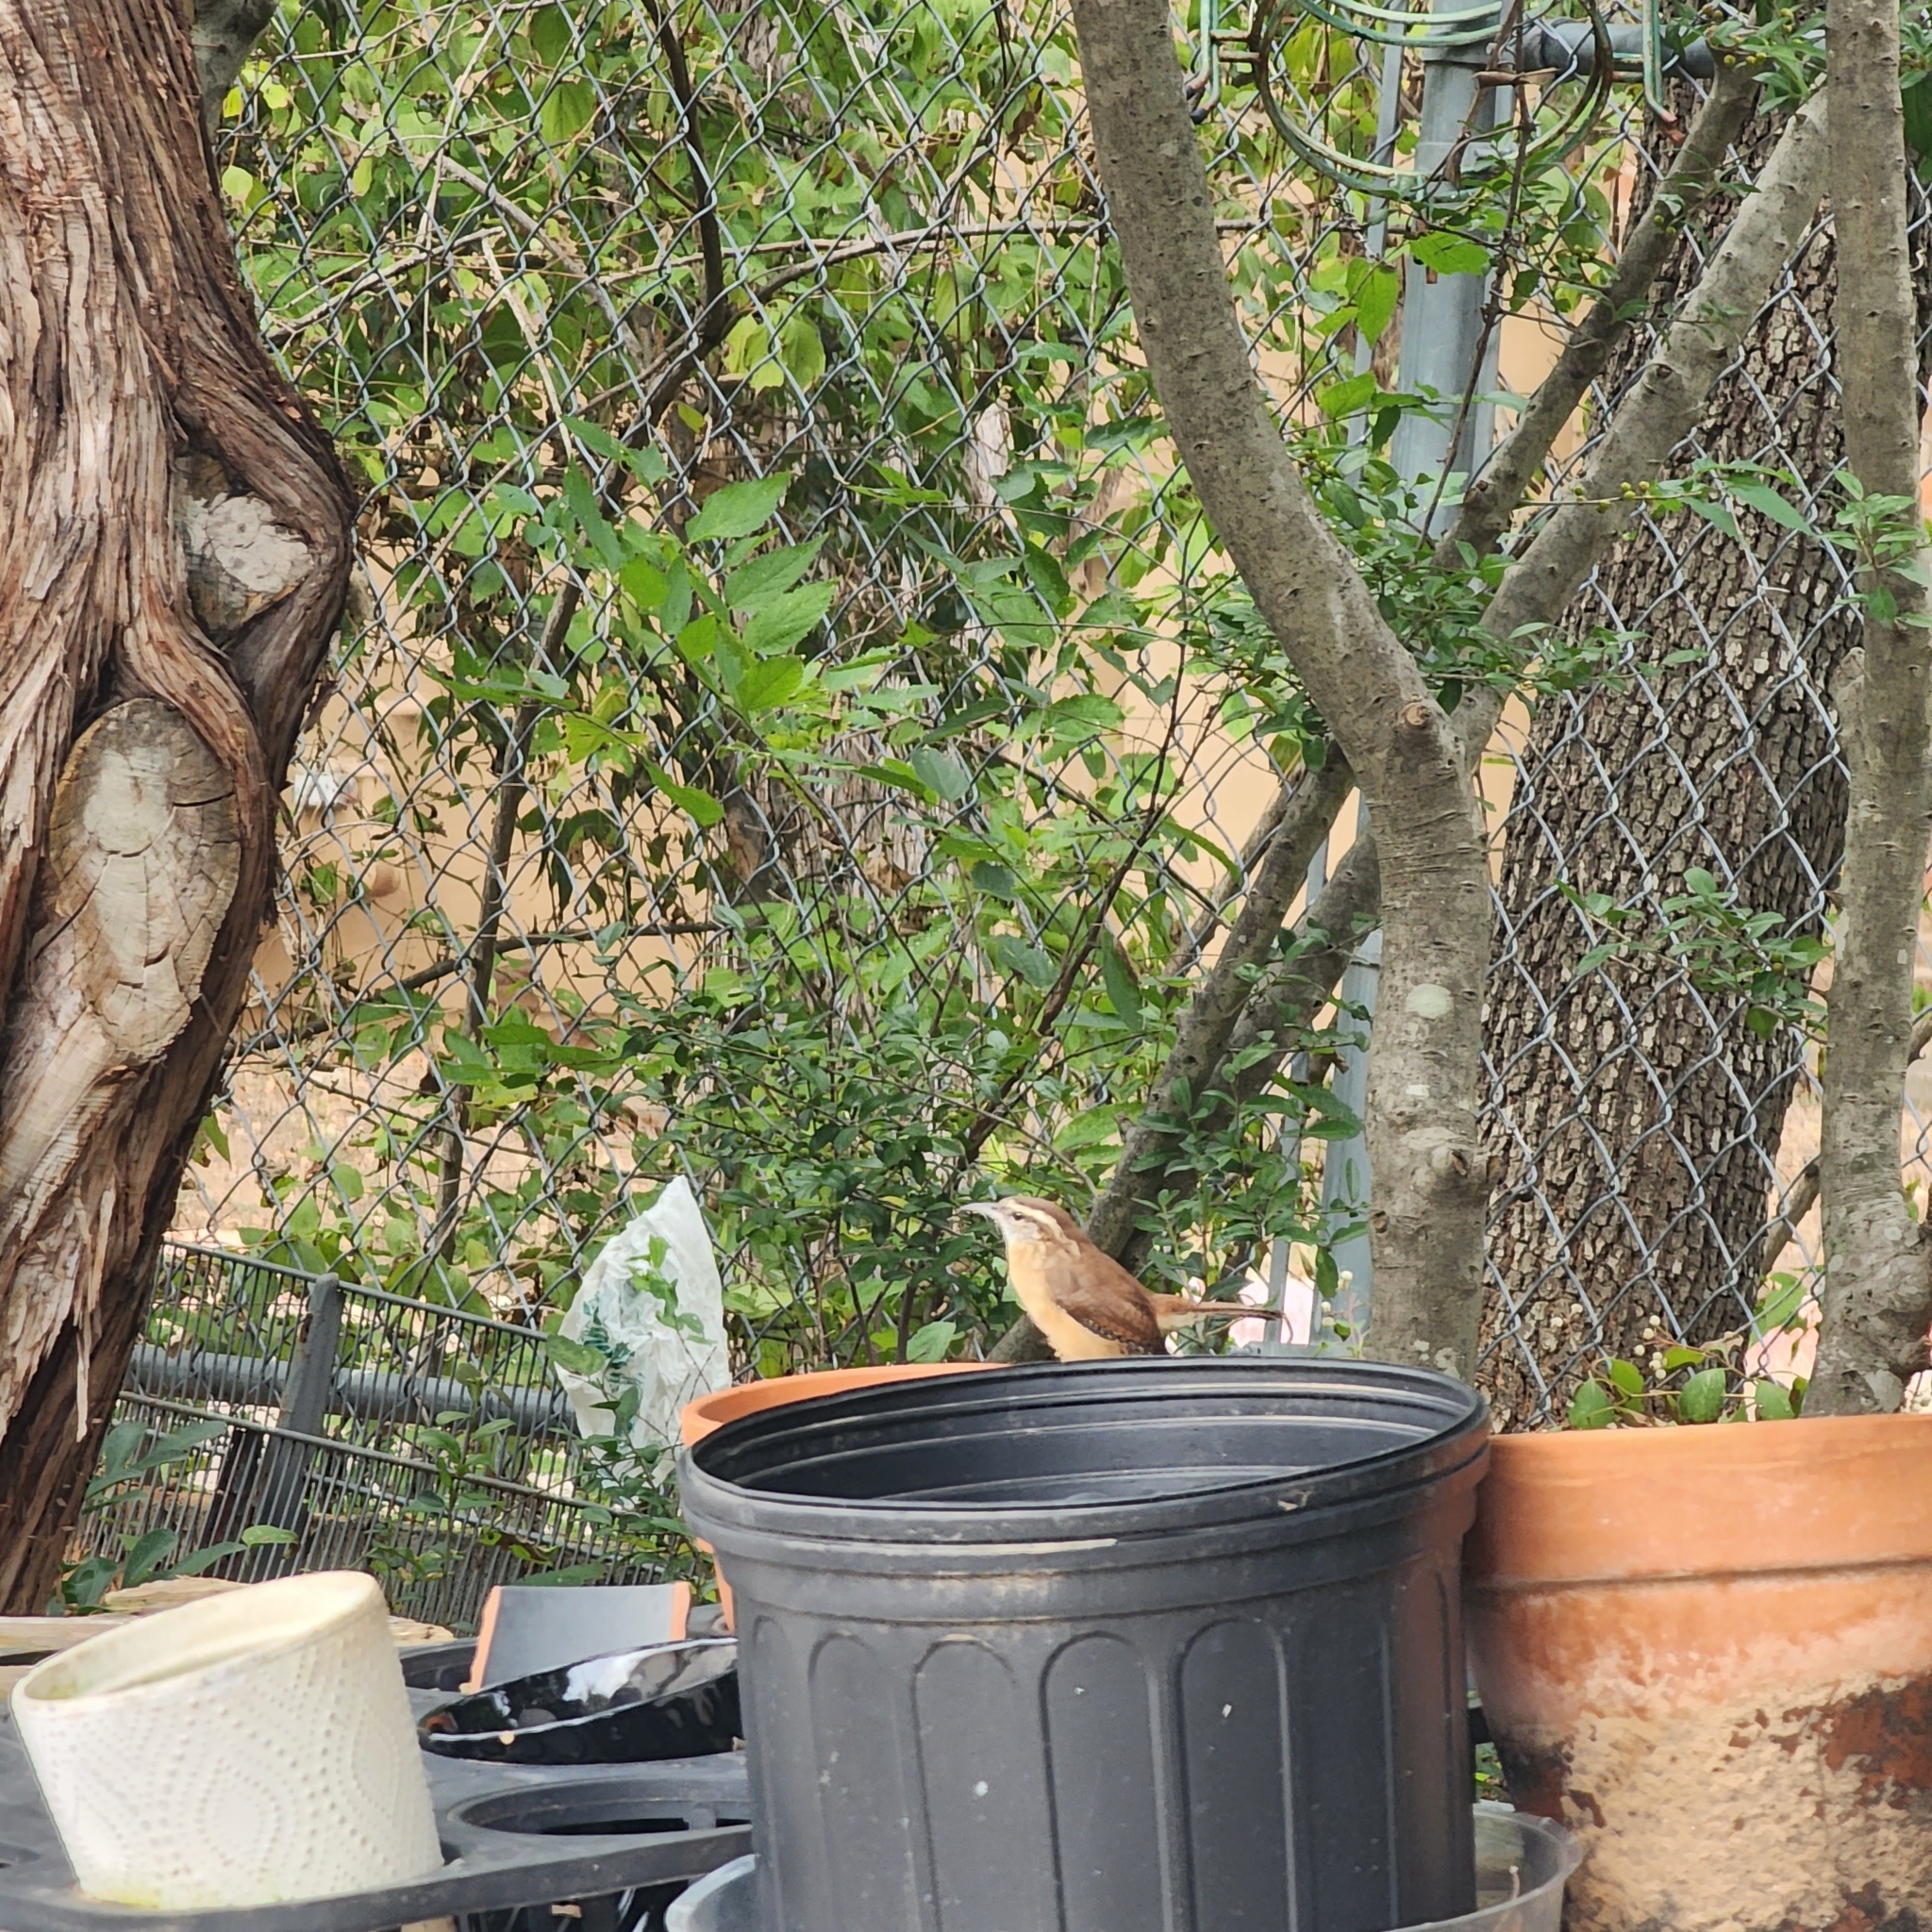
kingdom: Animalia
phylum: Chordata
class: Aves
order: Passeriformes
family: Troglodytidae
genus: Thryothorus
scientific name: Thryothorus ludovicianus
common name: Carolina wren
